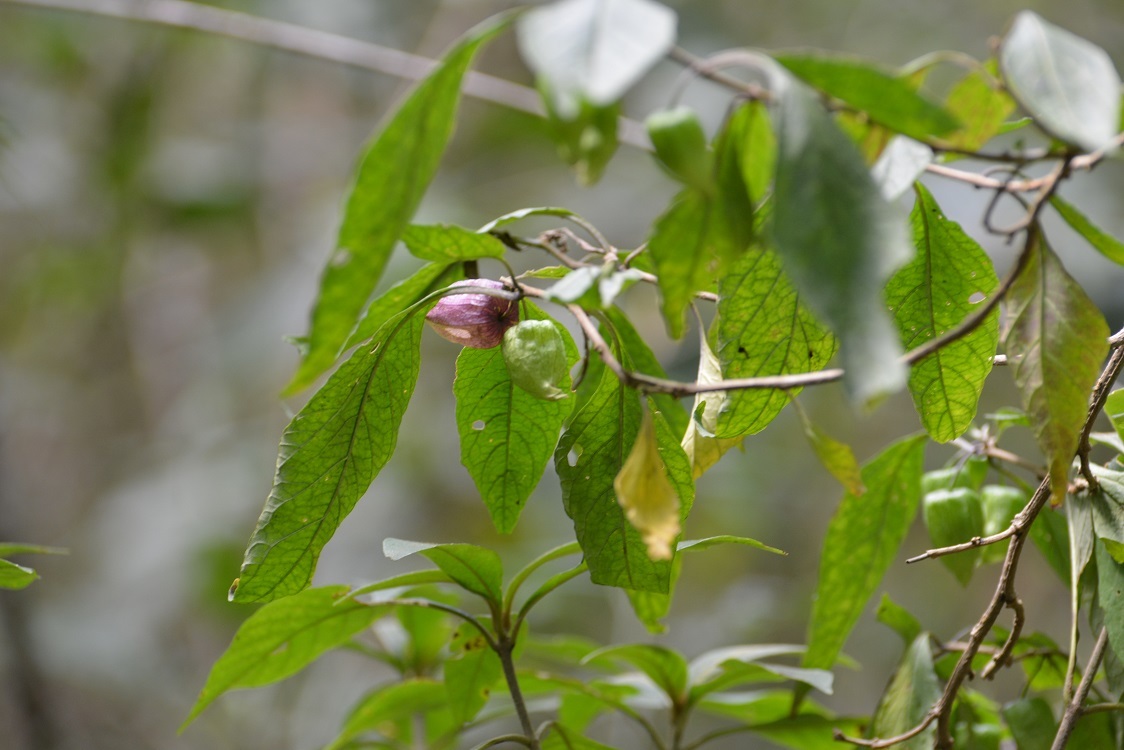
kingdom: Plantae
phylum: Tracheophyta
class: Magnoliopsida
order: Solanales
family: Solanaceae
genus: Physalis
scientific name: Physalis campechiana
